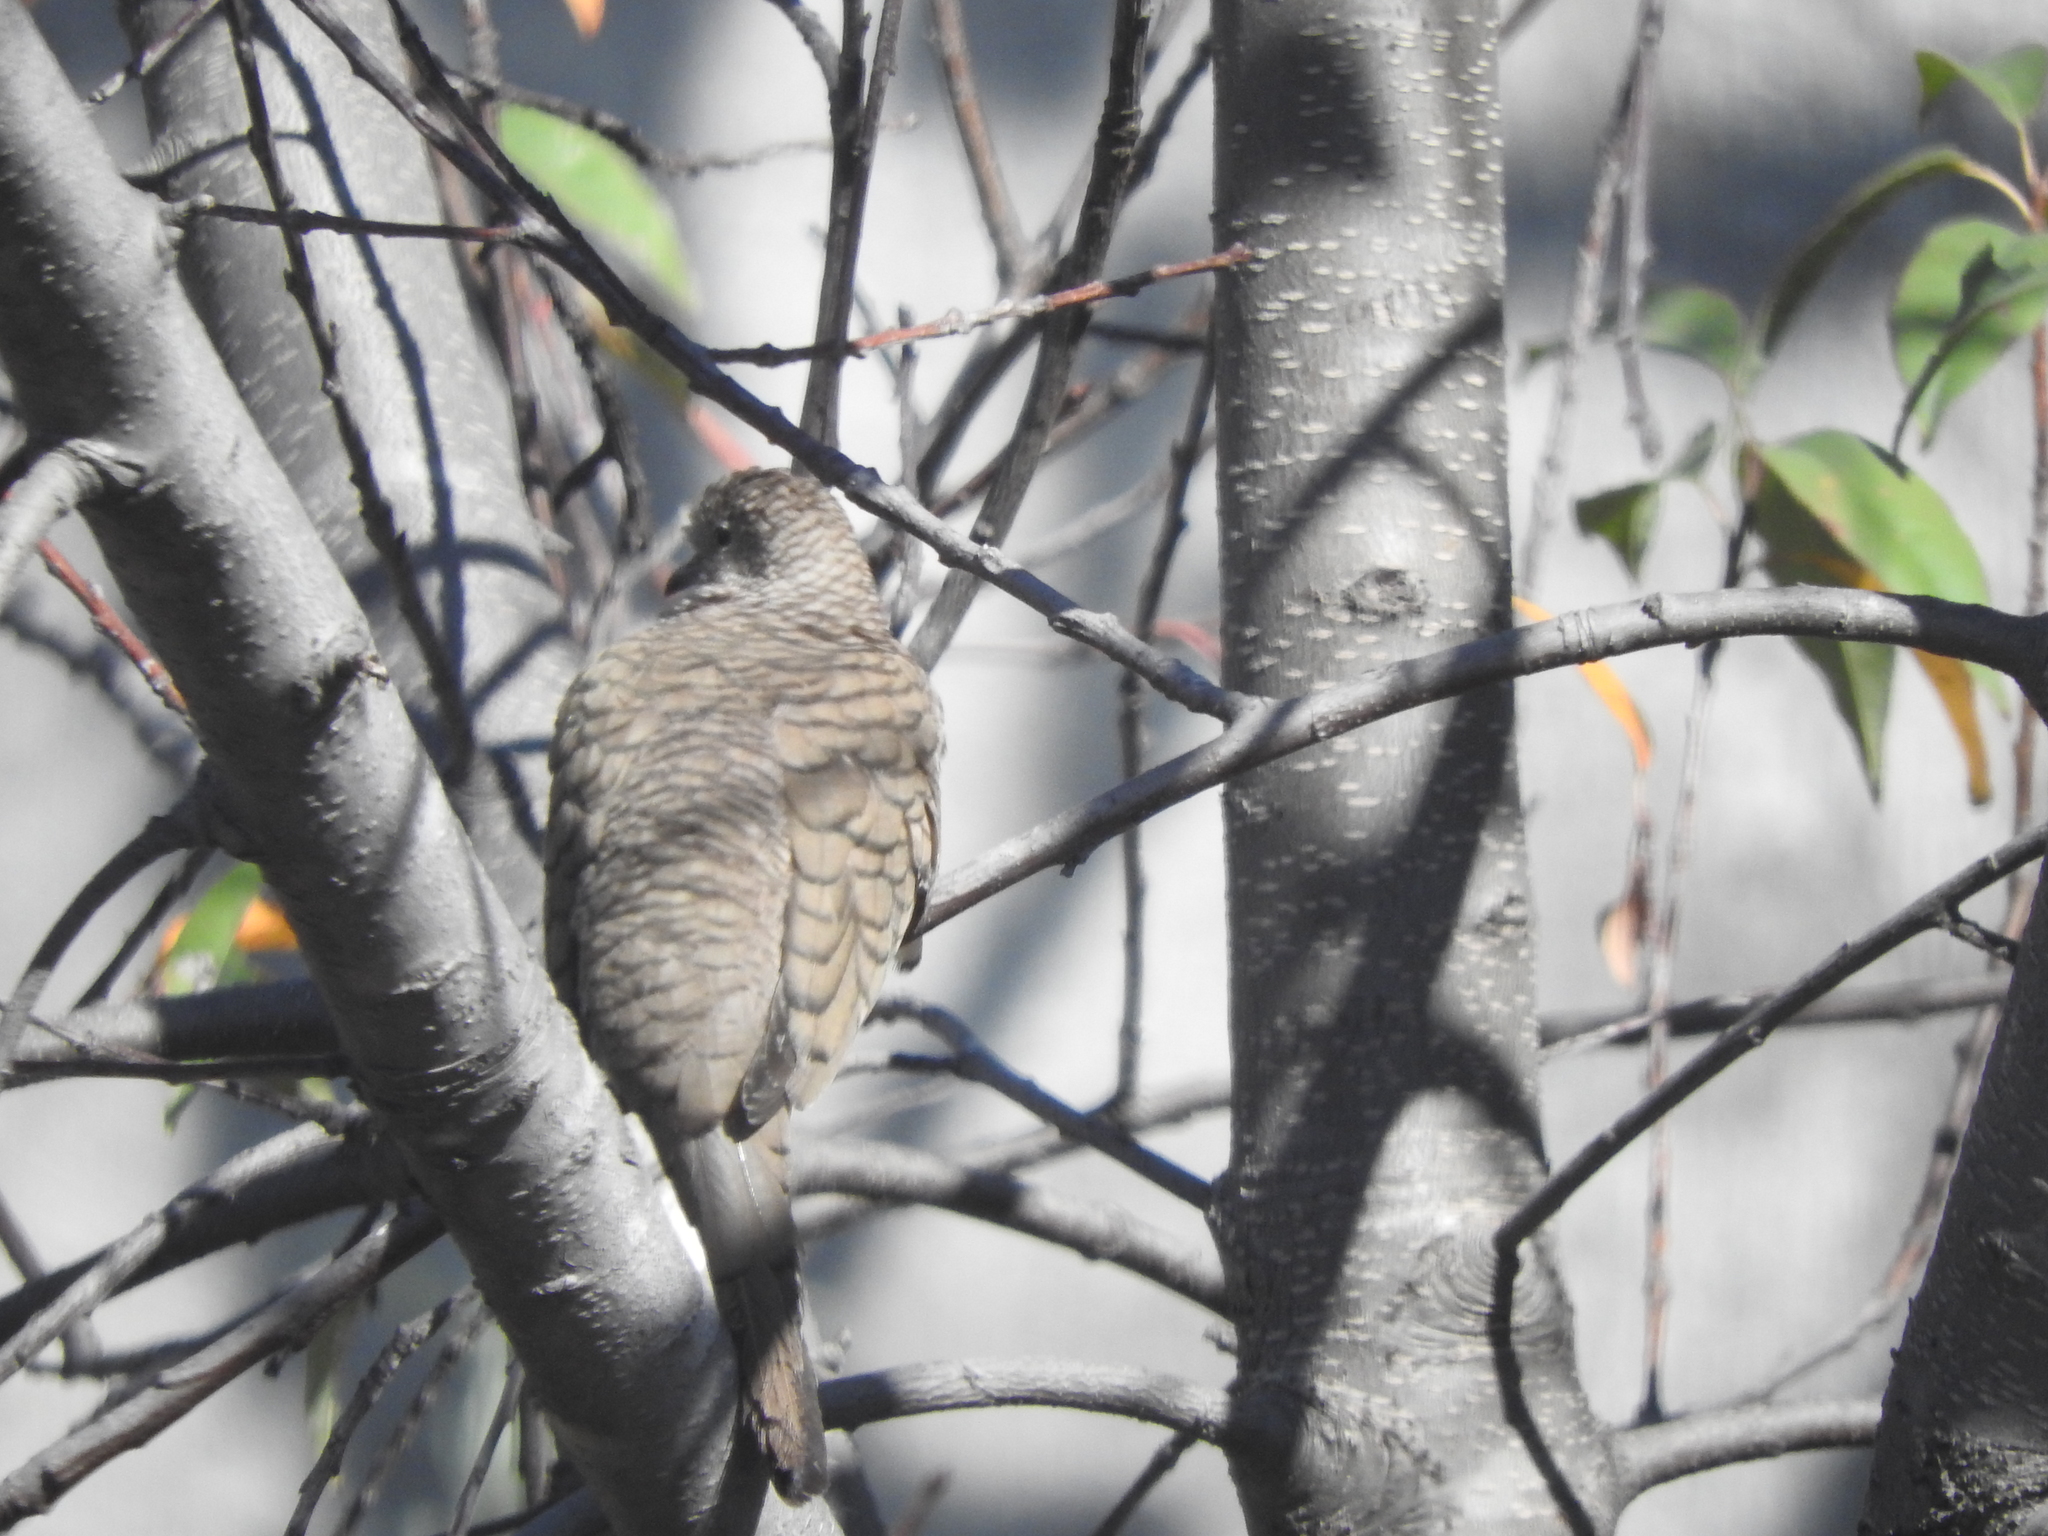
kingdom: Animalia
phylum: Chordata
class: Aves
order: Columbiformes
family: Columbidae
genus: Columbina
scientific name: Columbina inca
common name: Inca dove
